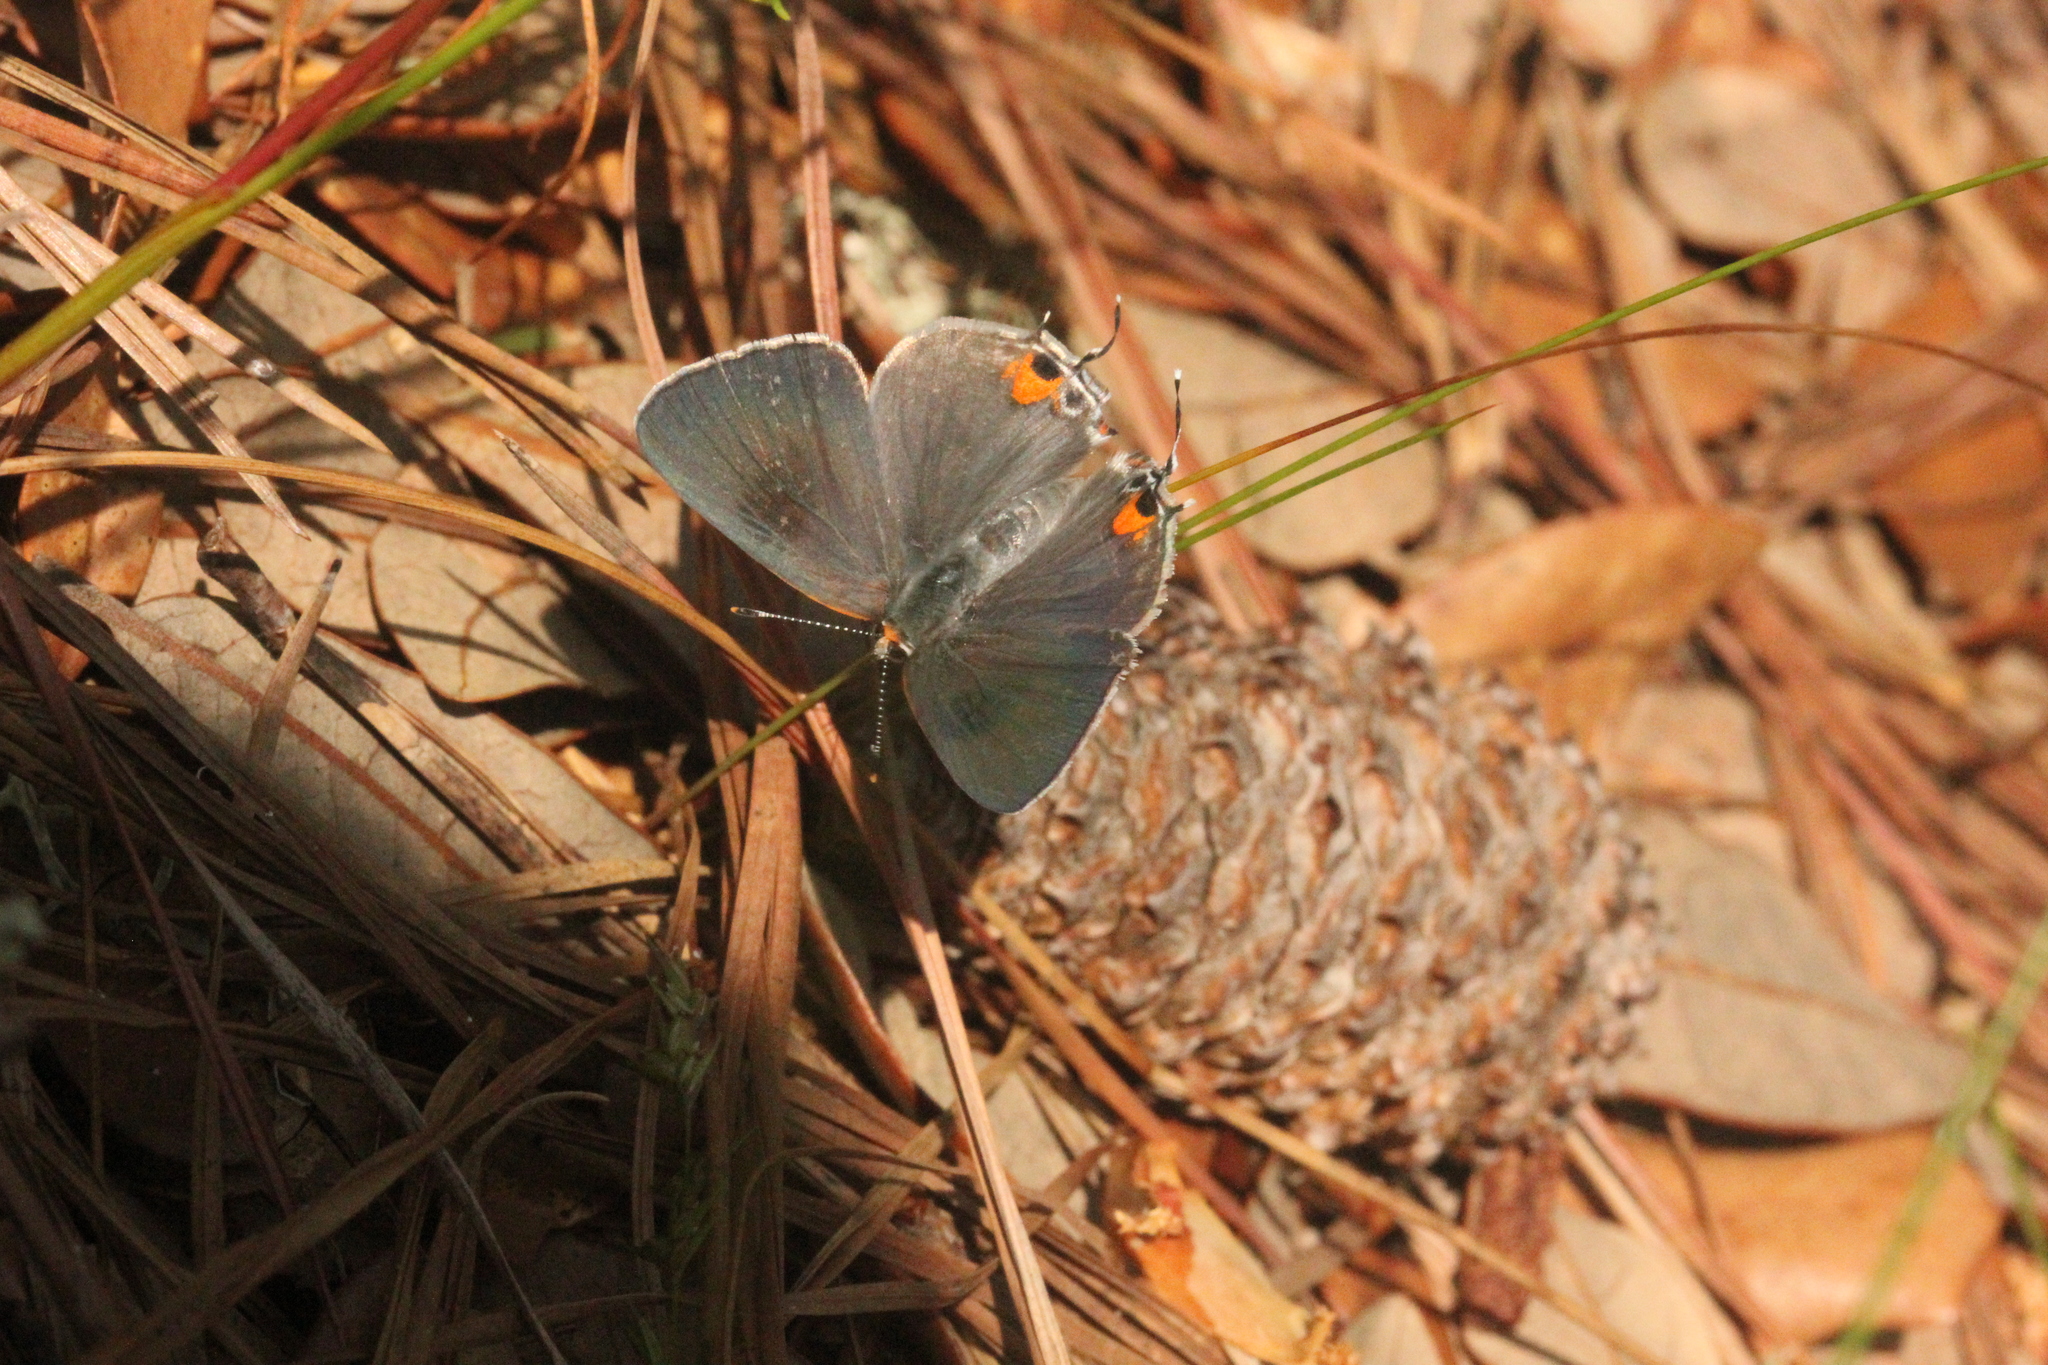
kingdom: Animalia
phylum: Arthropoda
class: Insecta
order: Lepidoptera
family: Lycaenidae
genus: Strymon
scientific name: Strymon melinus
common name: Gray hairstreak
